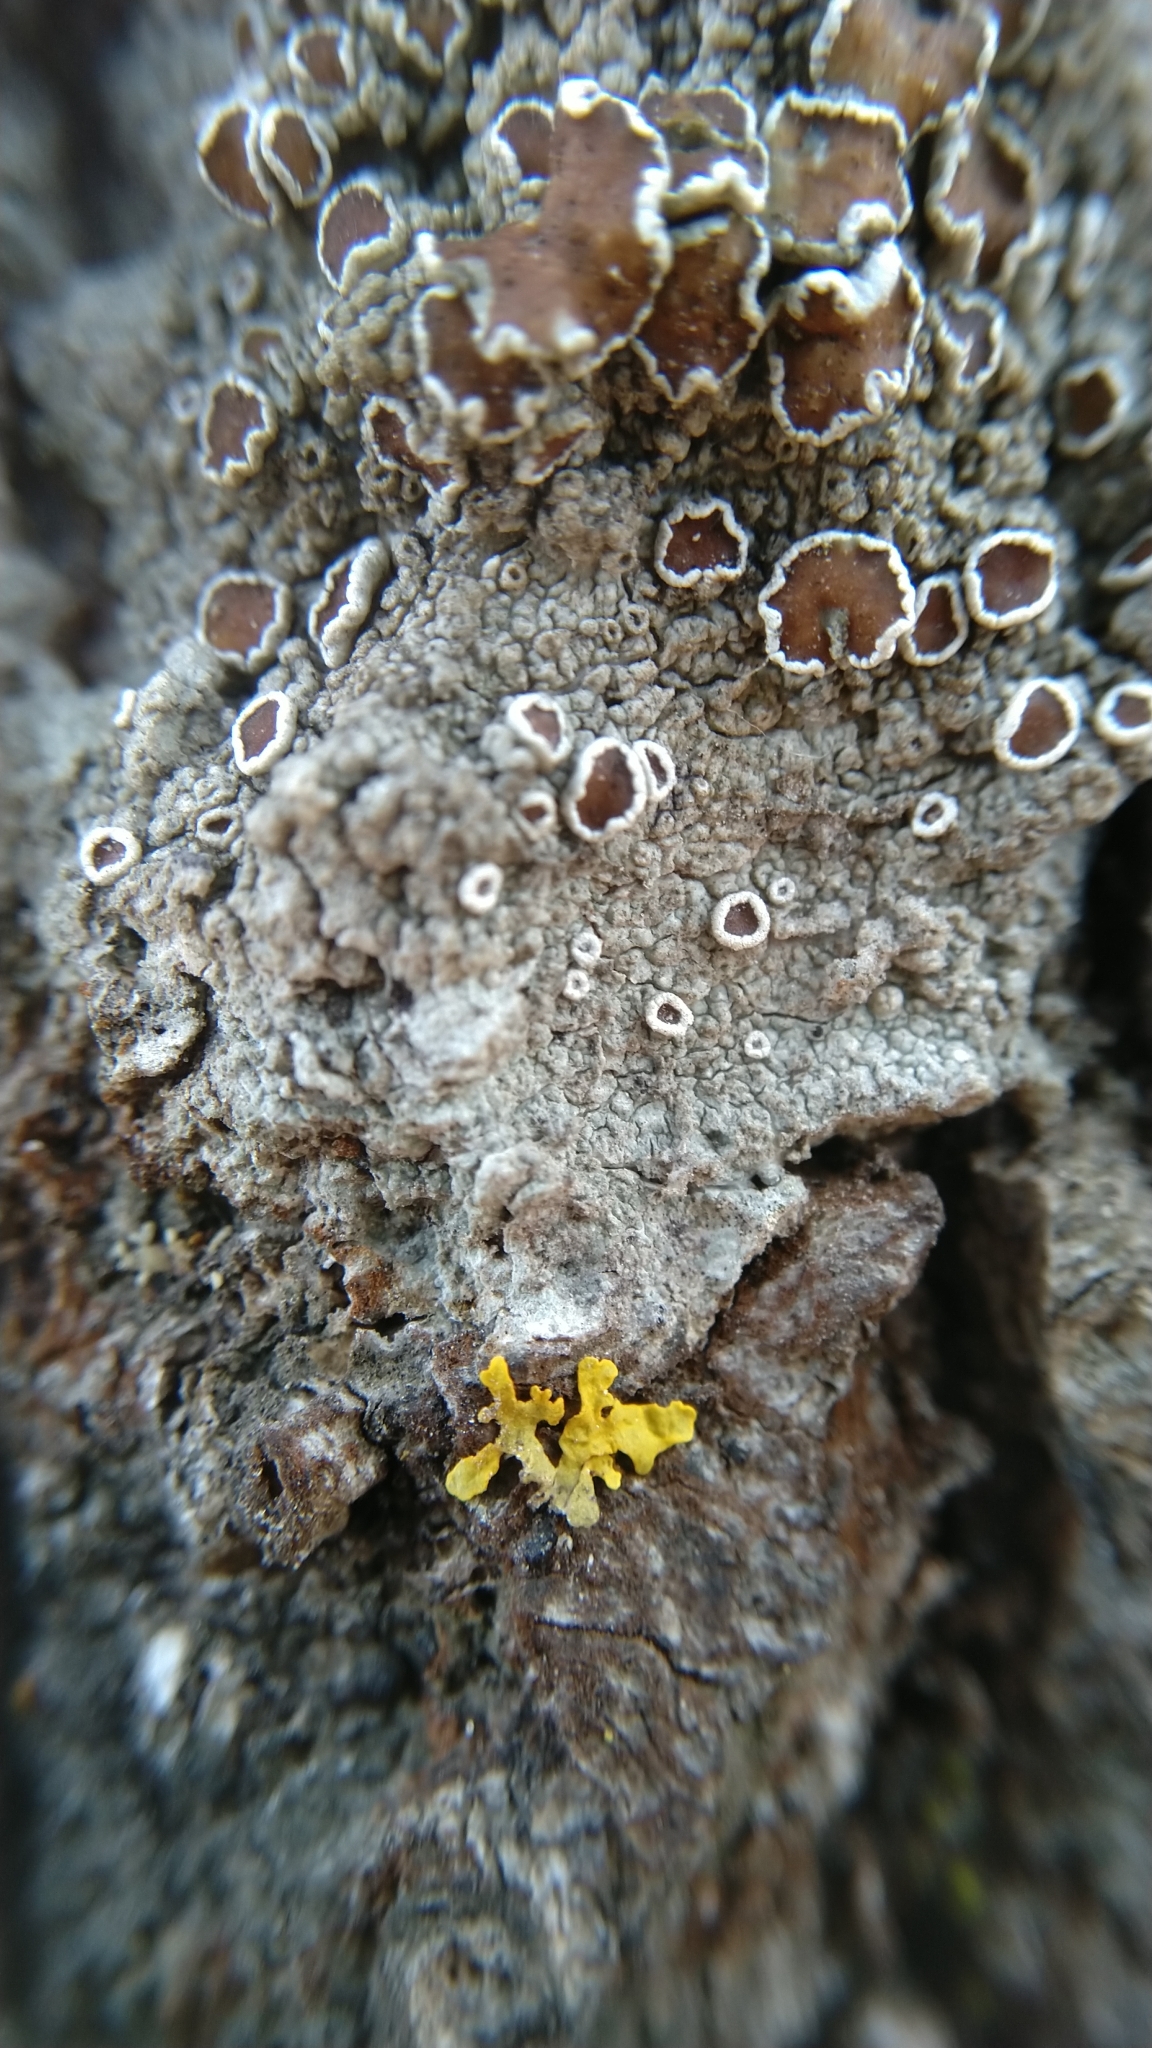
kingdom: Fungi
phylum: Ascomycota
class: Lecanoromycetes
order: Lecanorales
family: Lecanoraceae
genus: Lecanora
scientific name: Lecanora albella
